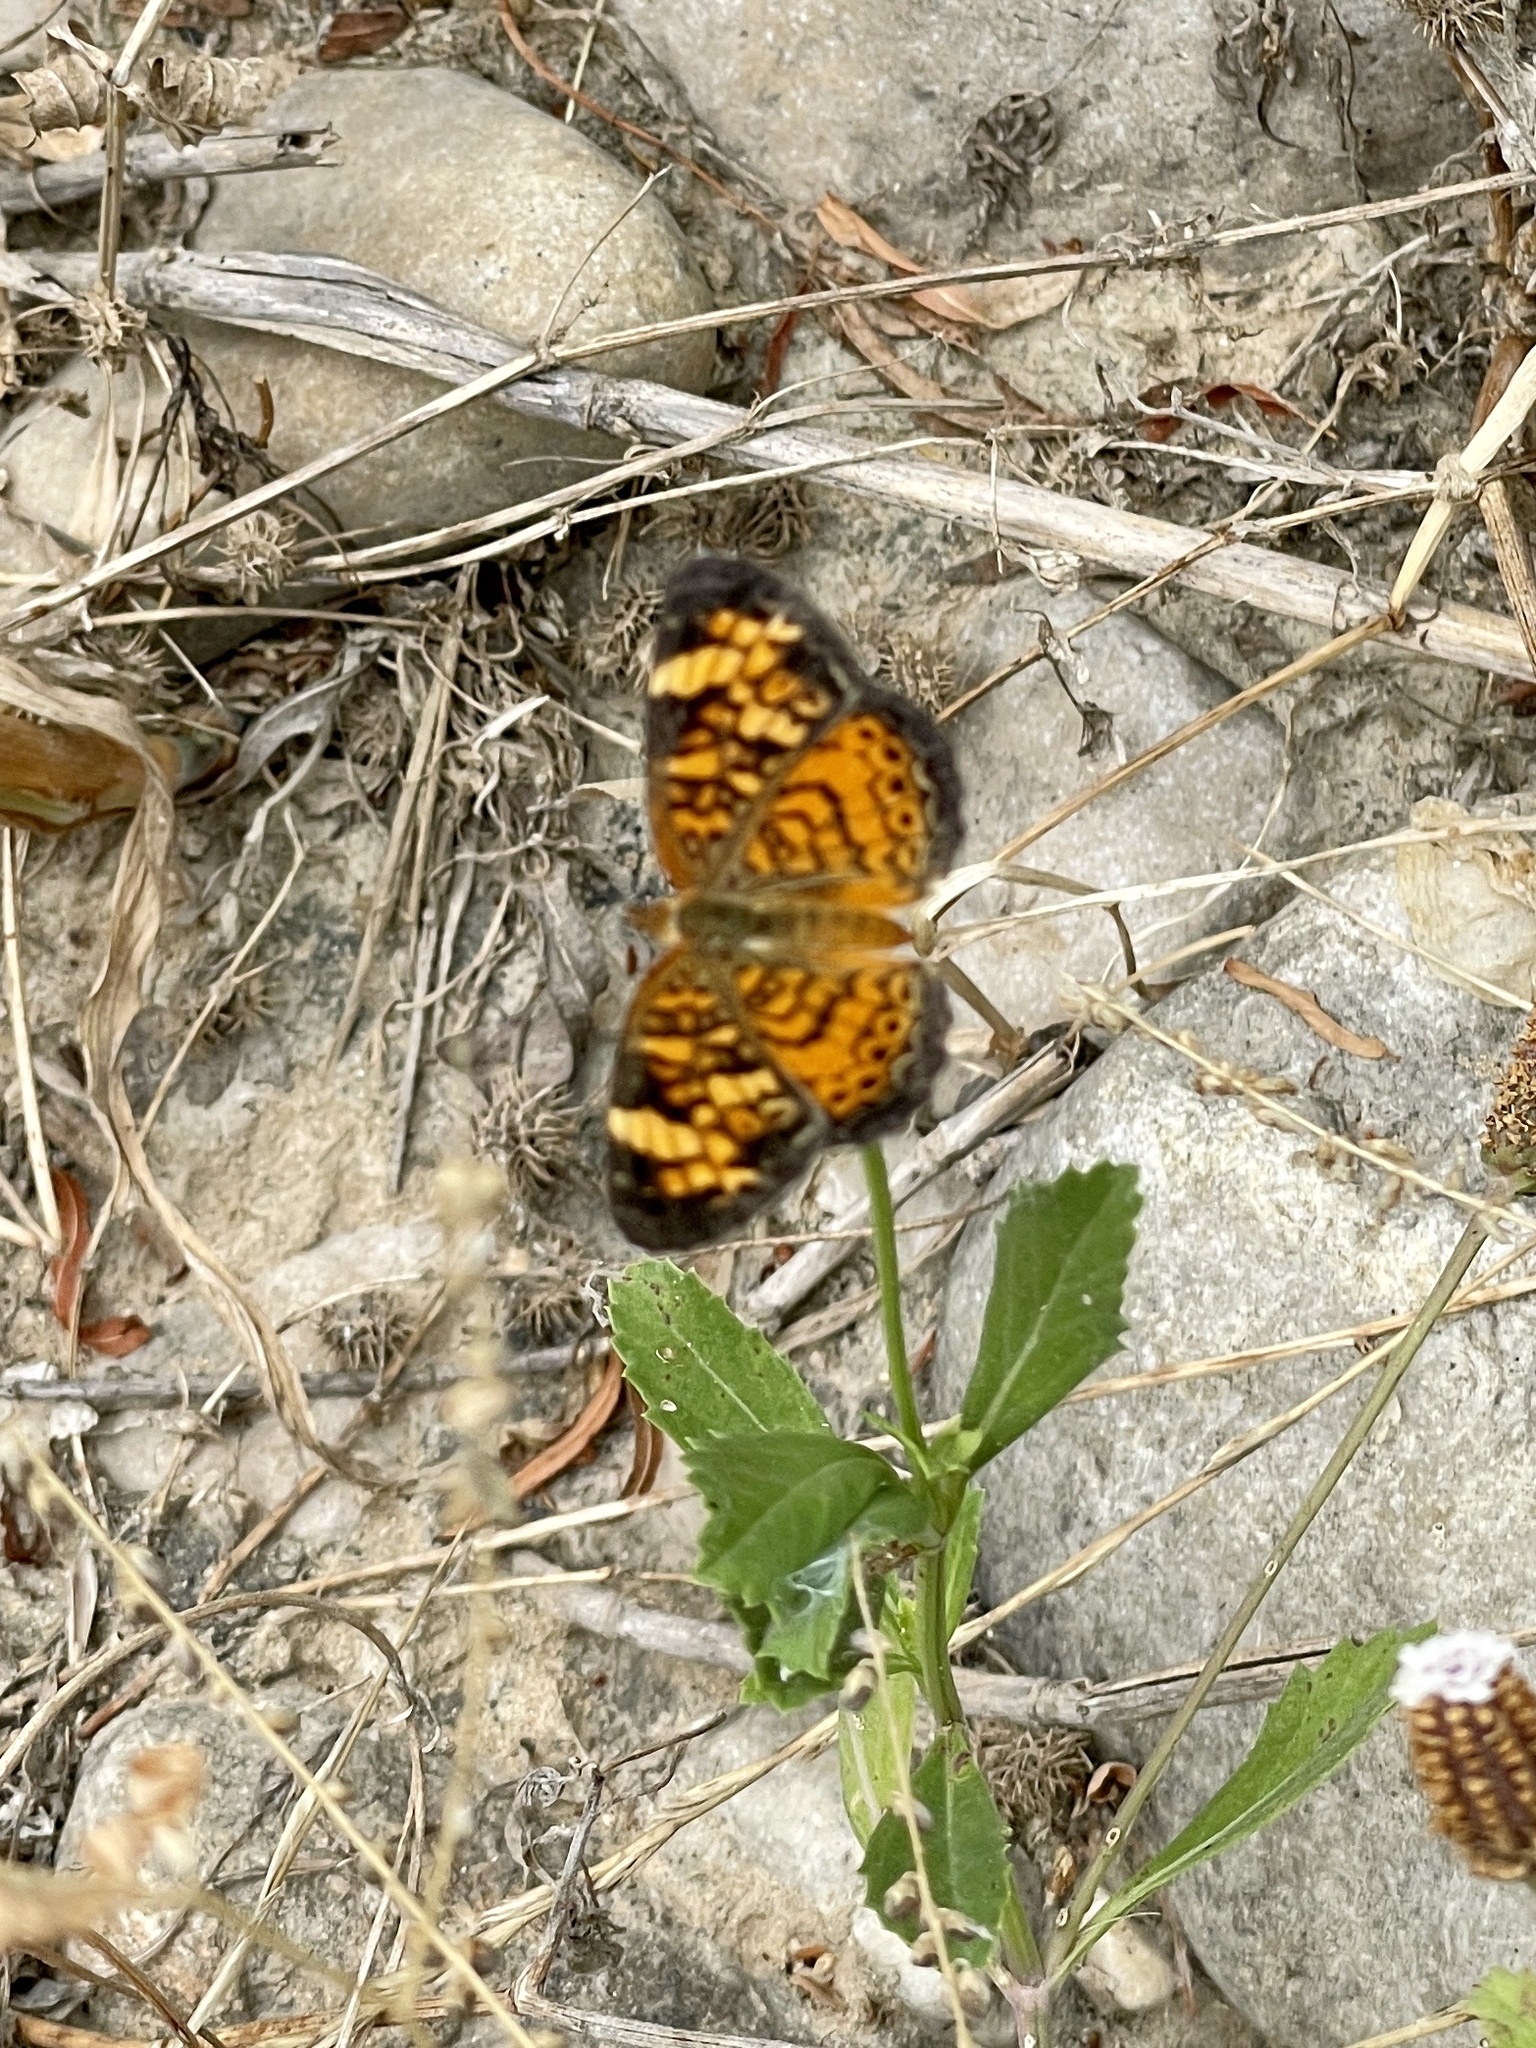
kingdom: Animalia
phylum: Arthropoda
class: Insecta
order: Lepidoptera
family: Nymphalidae
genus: Phyciodes
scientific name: Phyciodes tharos
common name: Pearl crescent
